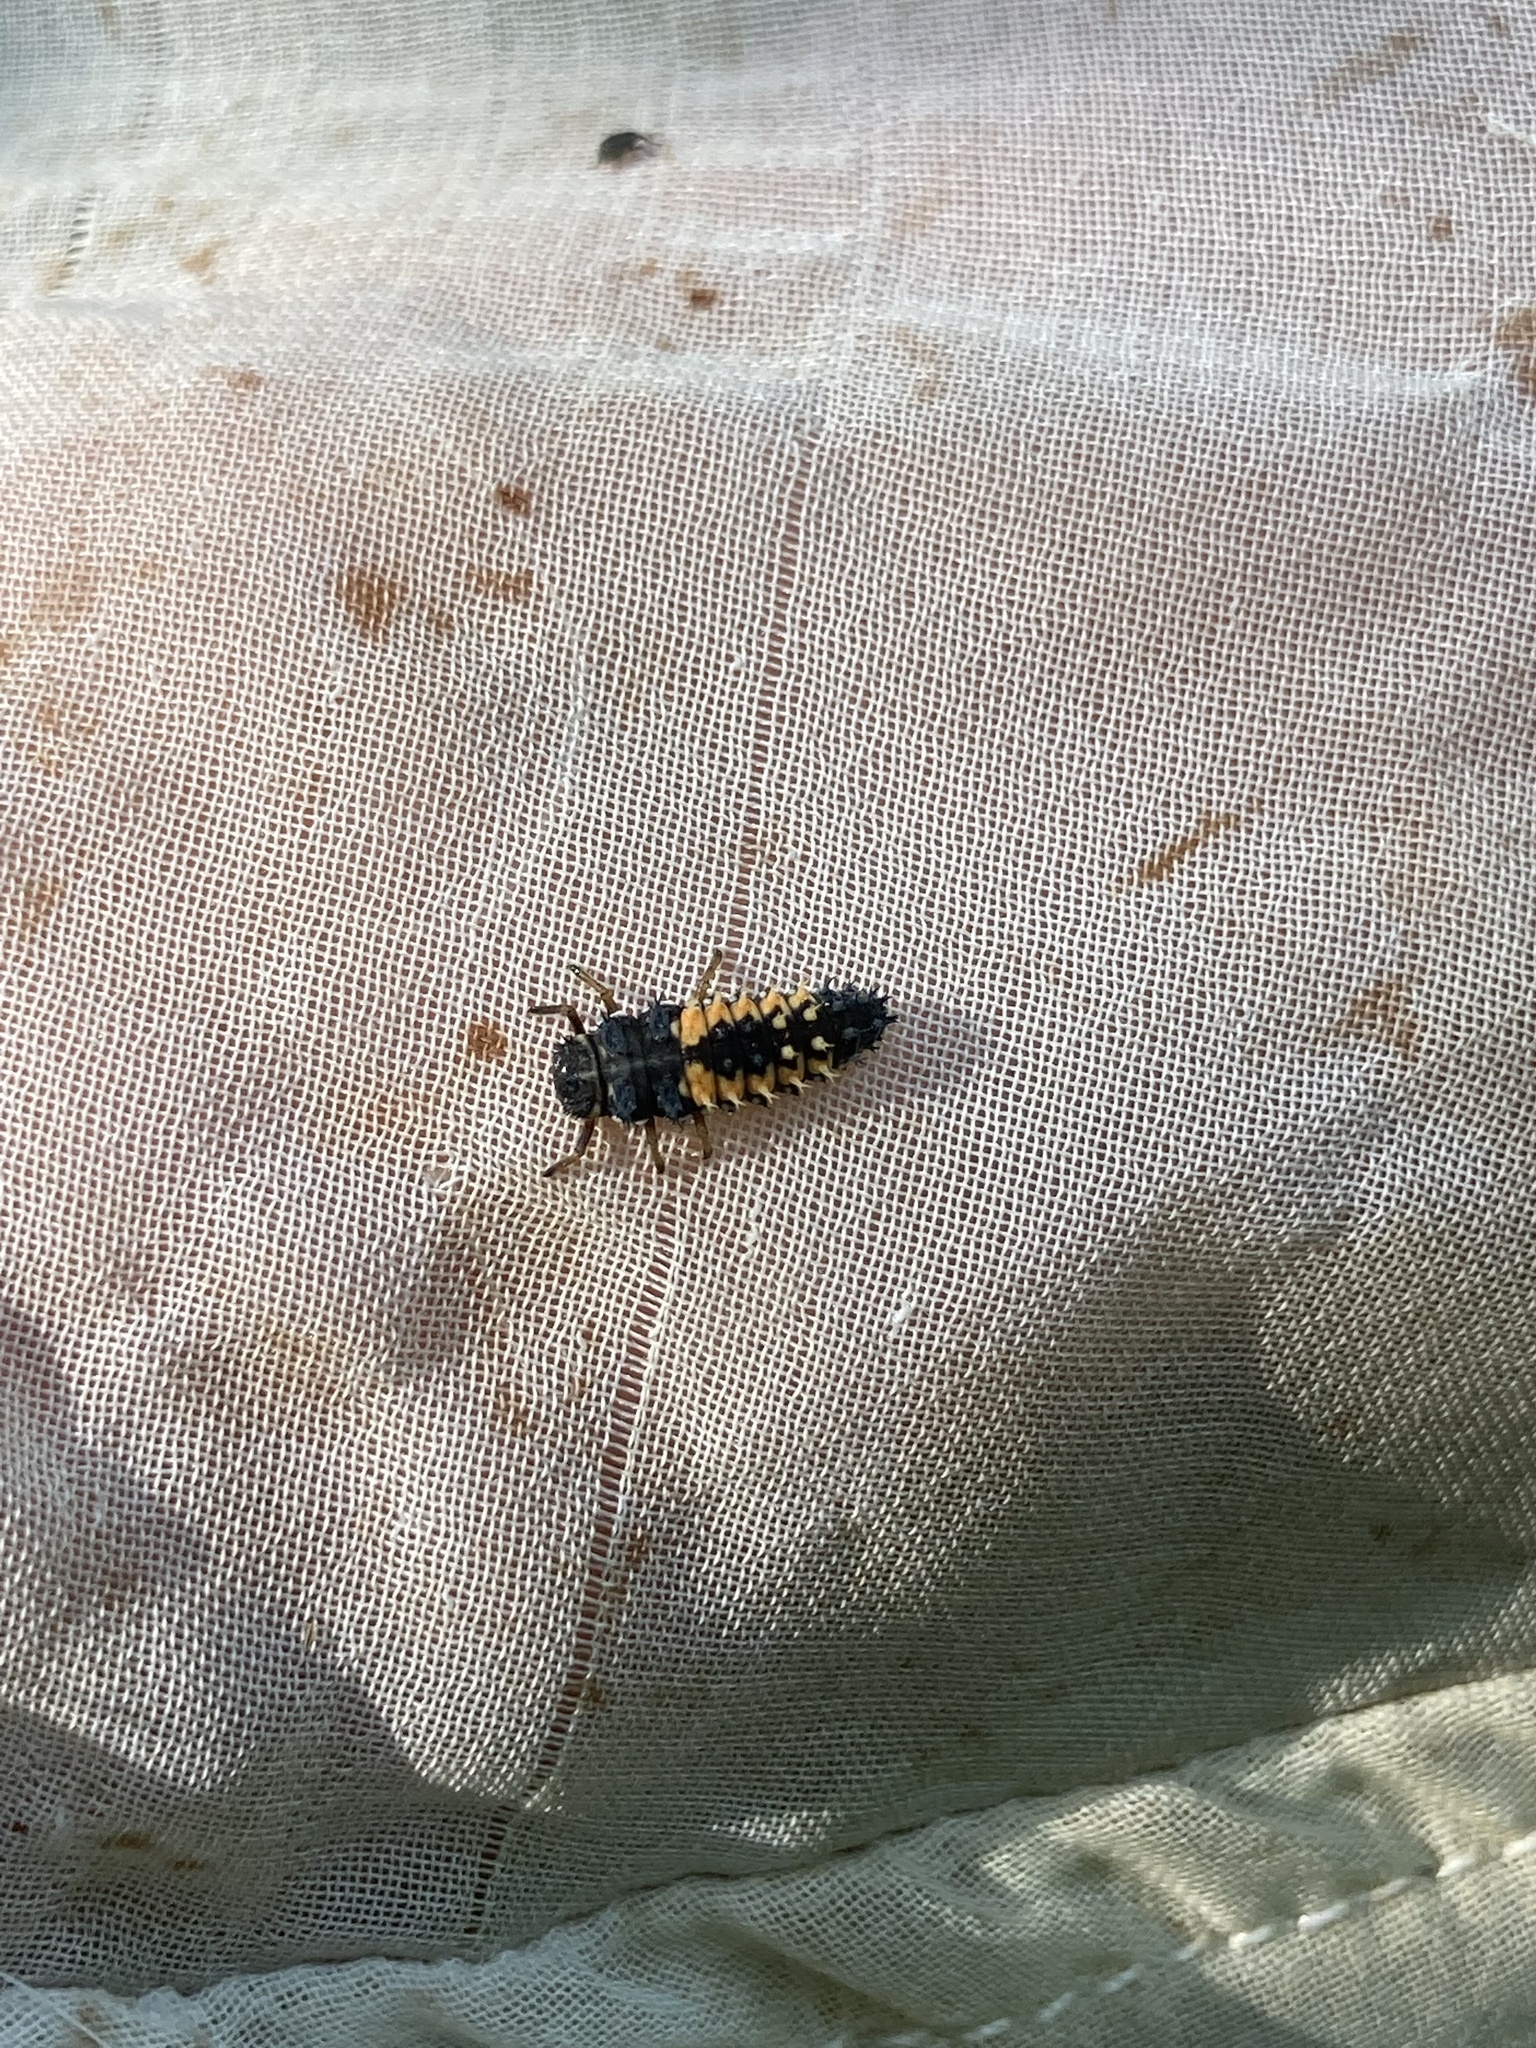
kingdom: Animalia
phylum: Arthropoda
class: Insecta
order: Coleoptera
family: Coccinellidae
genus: Harmonia
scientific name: Harmonia axyridis
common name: Harlequin ladybird
